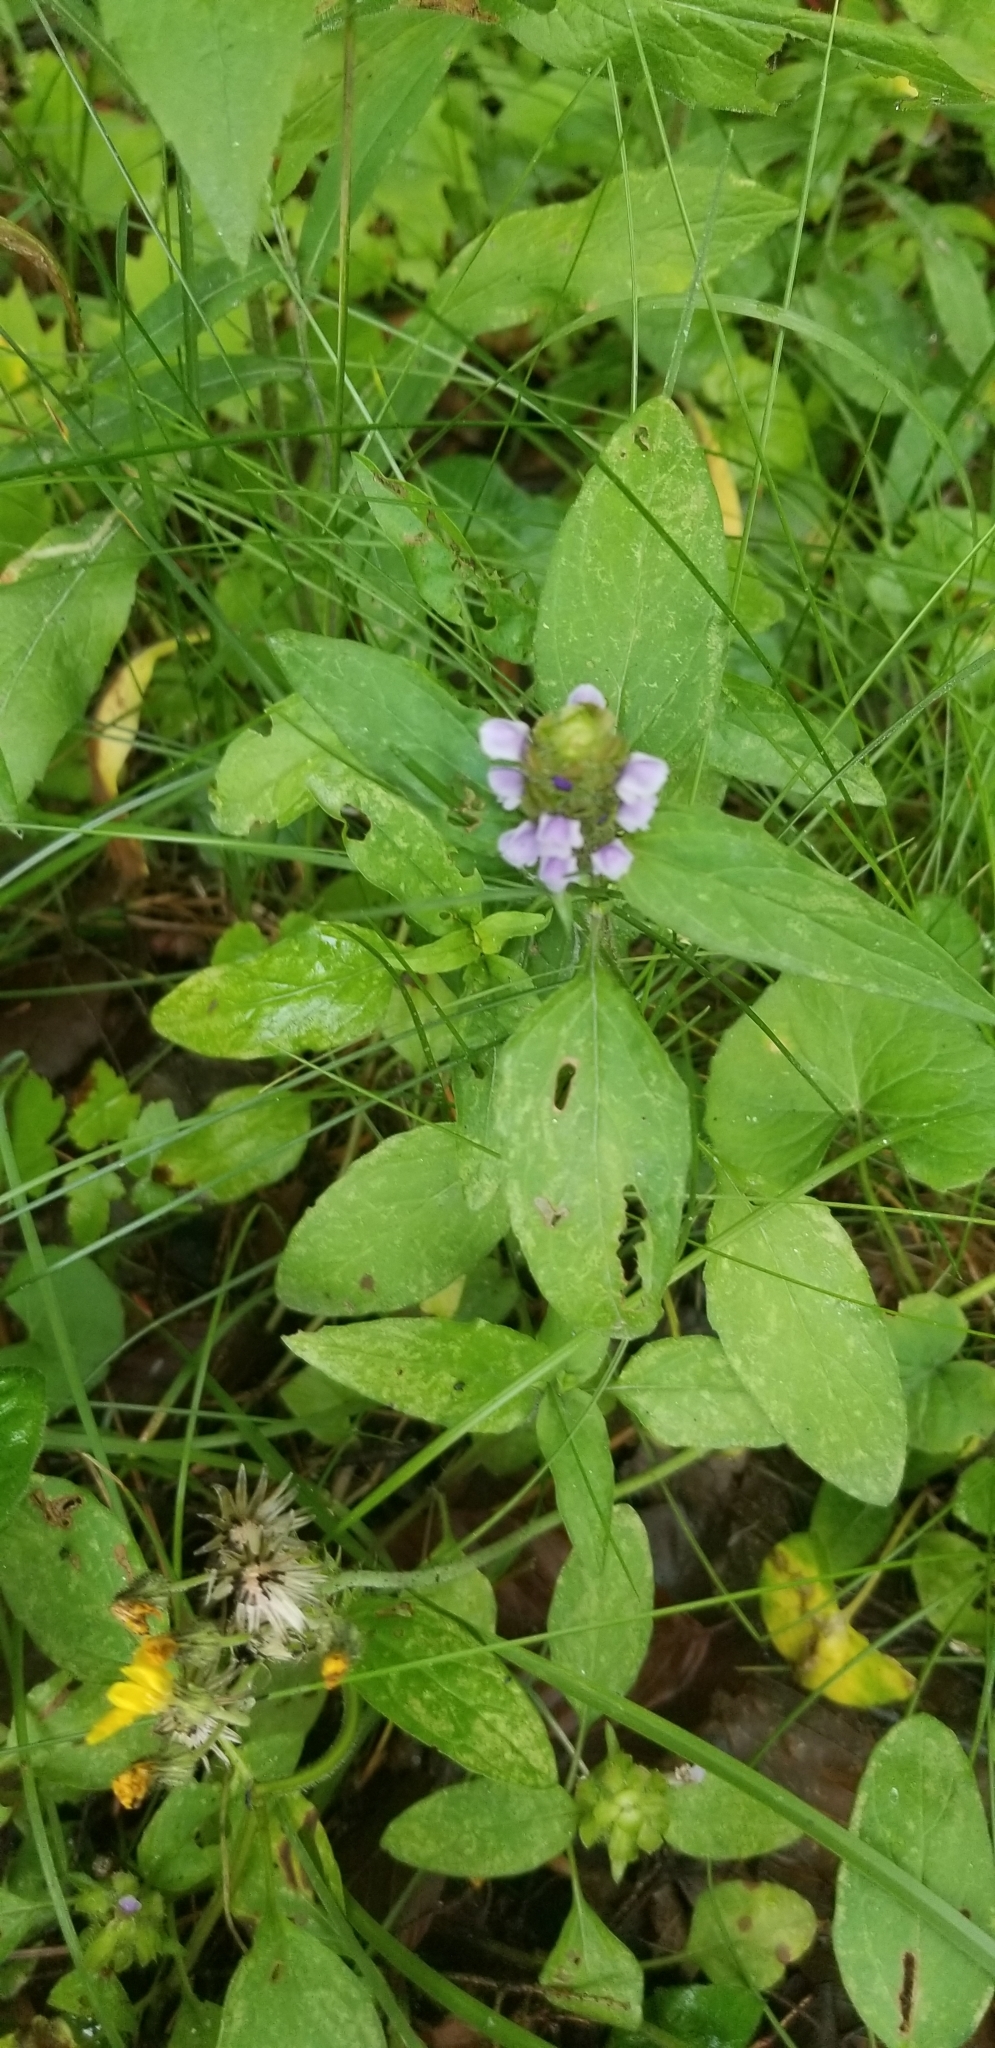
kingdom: Plantae
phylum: Tracheophyta
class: Magnoliopsida
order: Lamiales
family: Lamiaceae
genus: Prunella
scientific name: Prunella vulgaris
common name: Heal-all
